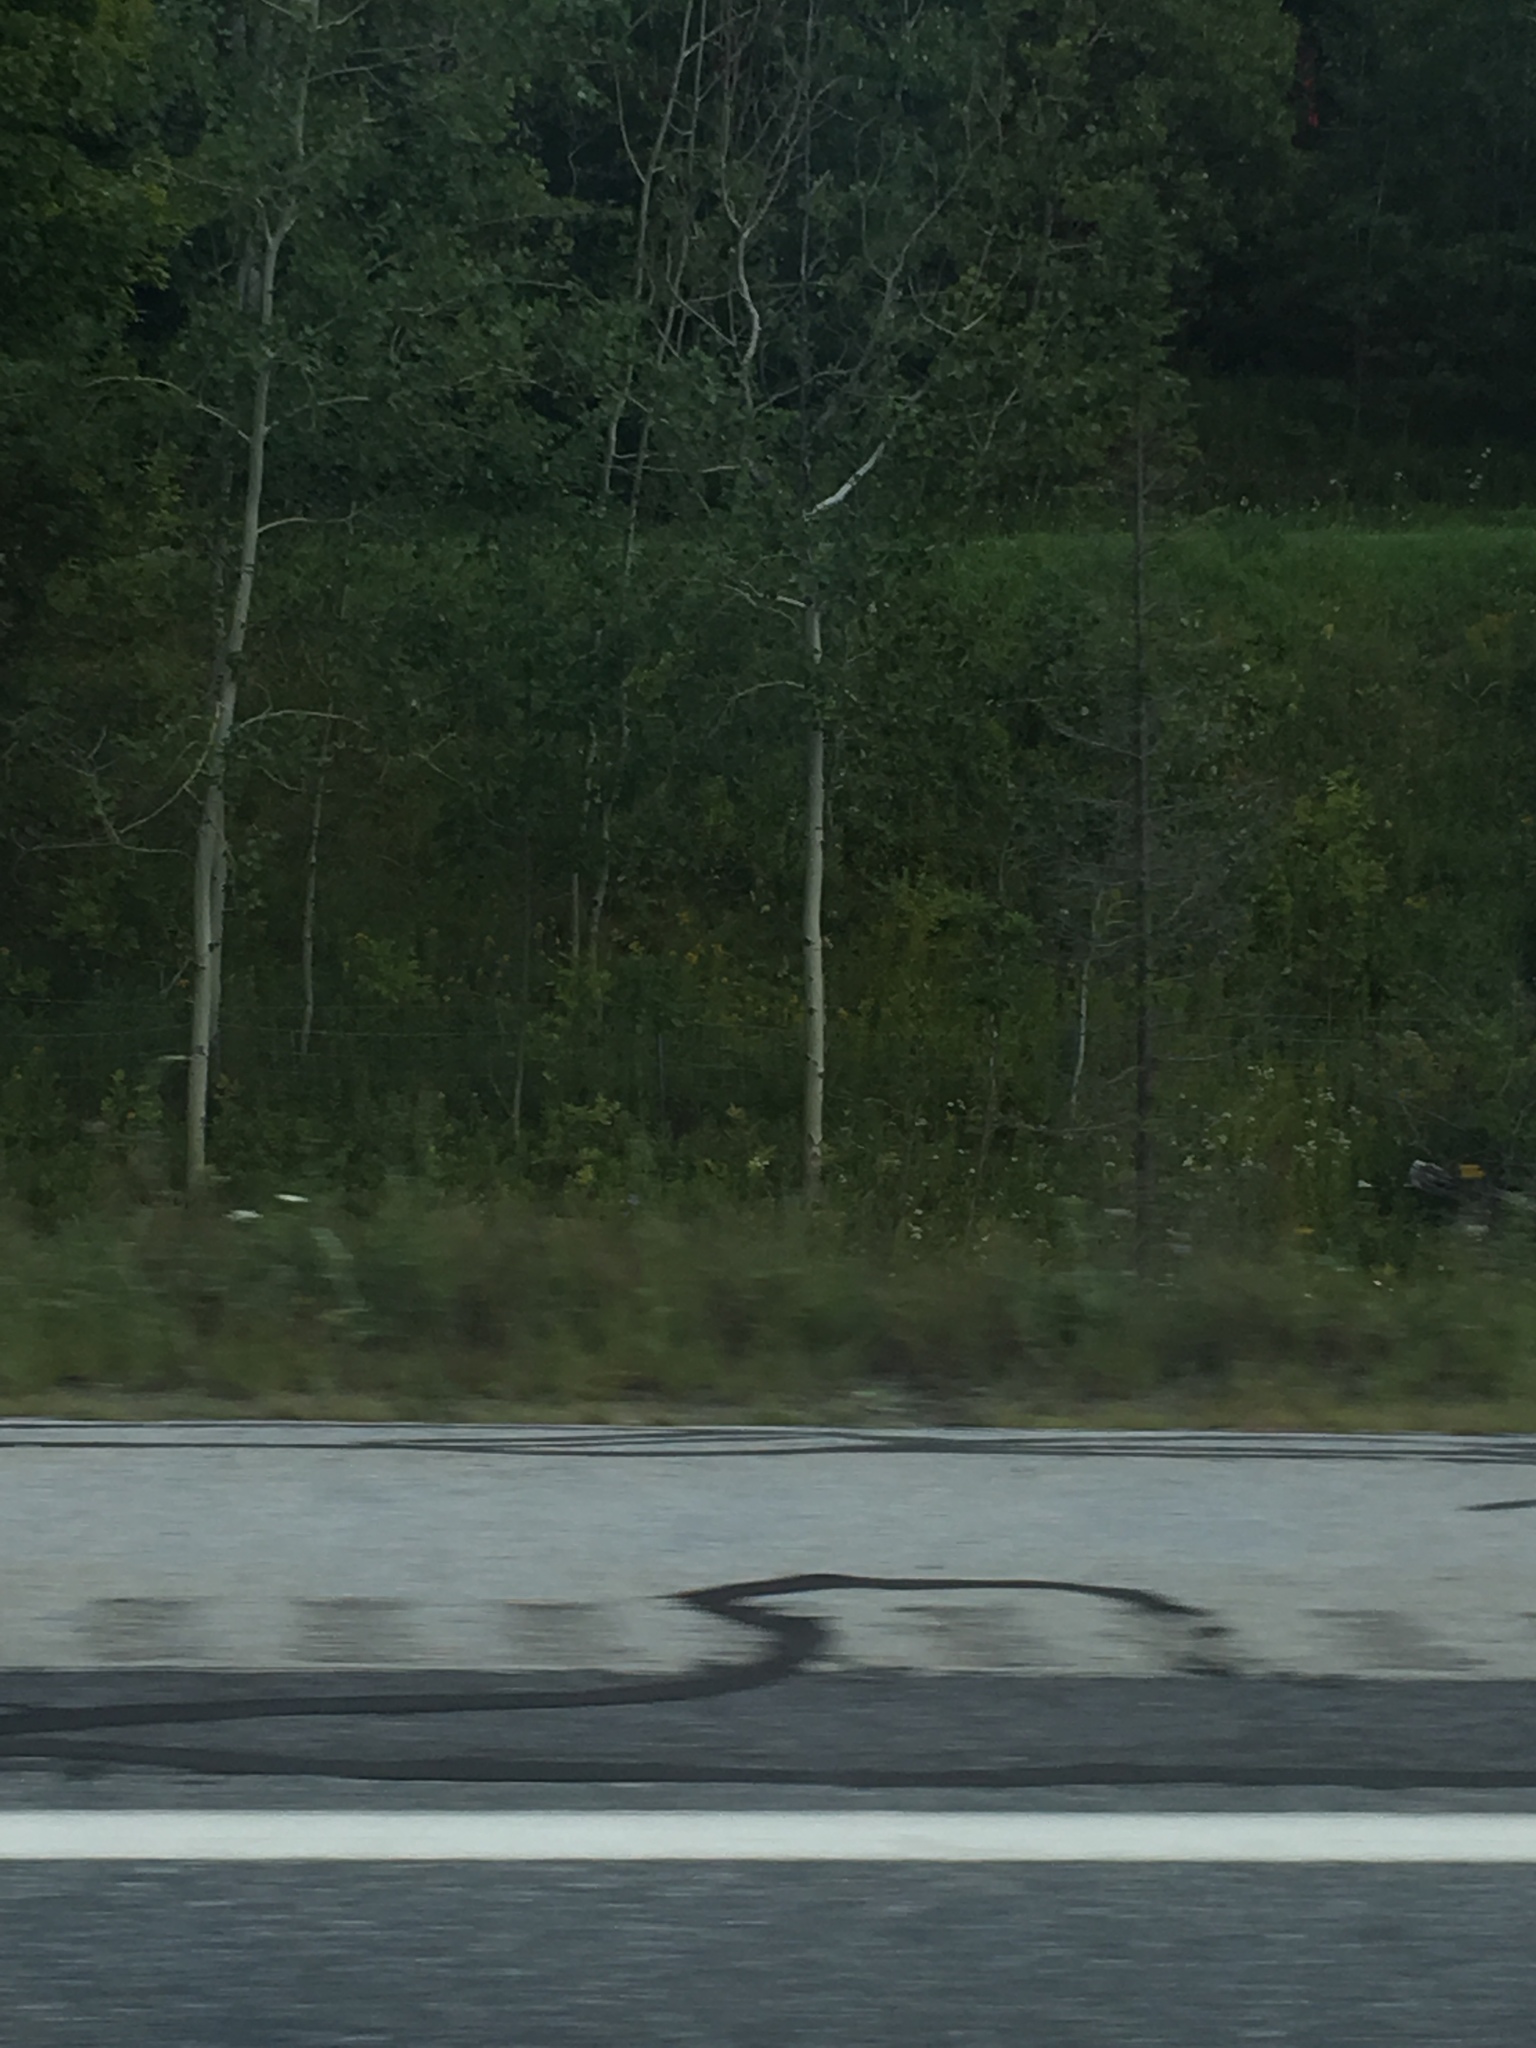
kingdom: Plantae
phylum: Tracheophyta
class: Magnoliopsida
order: Malpighiales
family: Salicaceae
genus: Populus
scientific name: Populus tremuloides
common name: Quaking aspen
